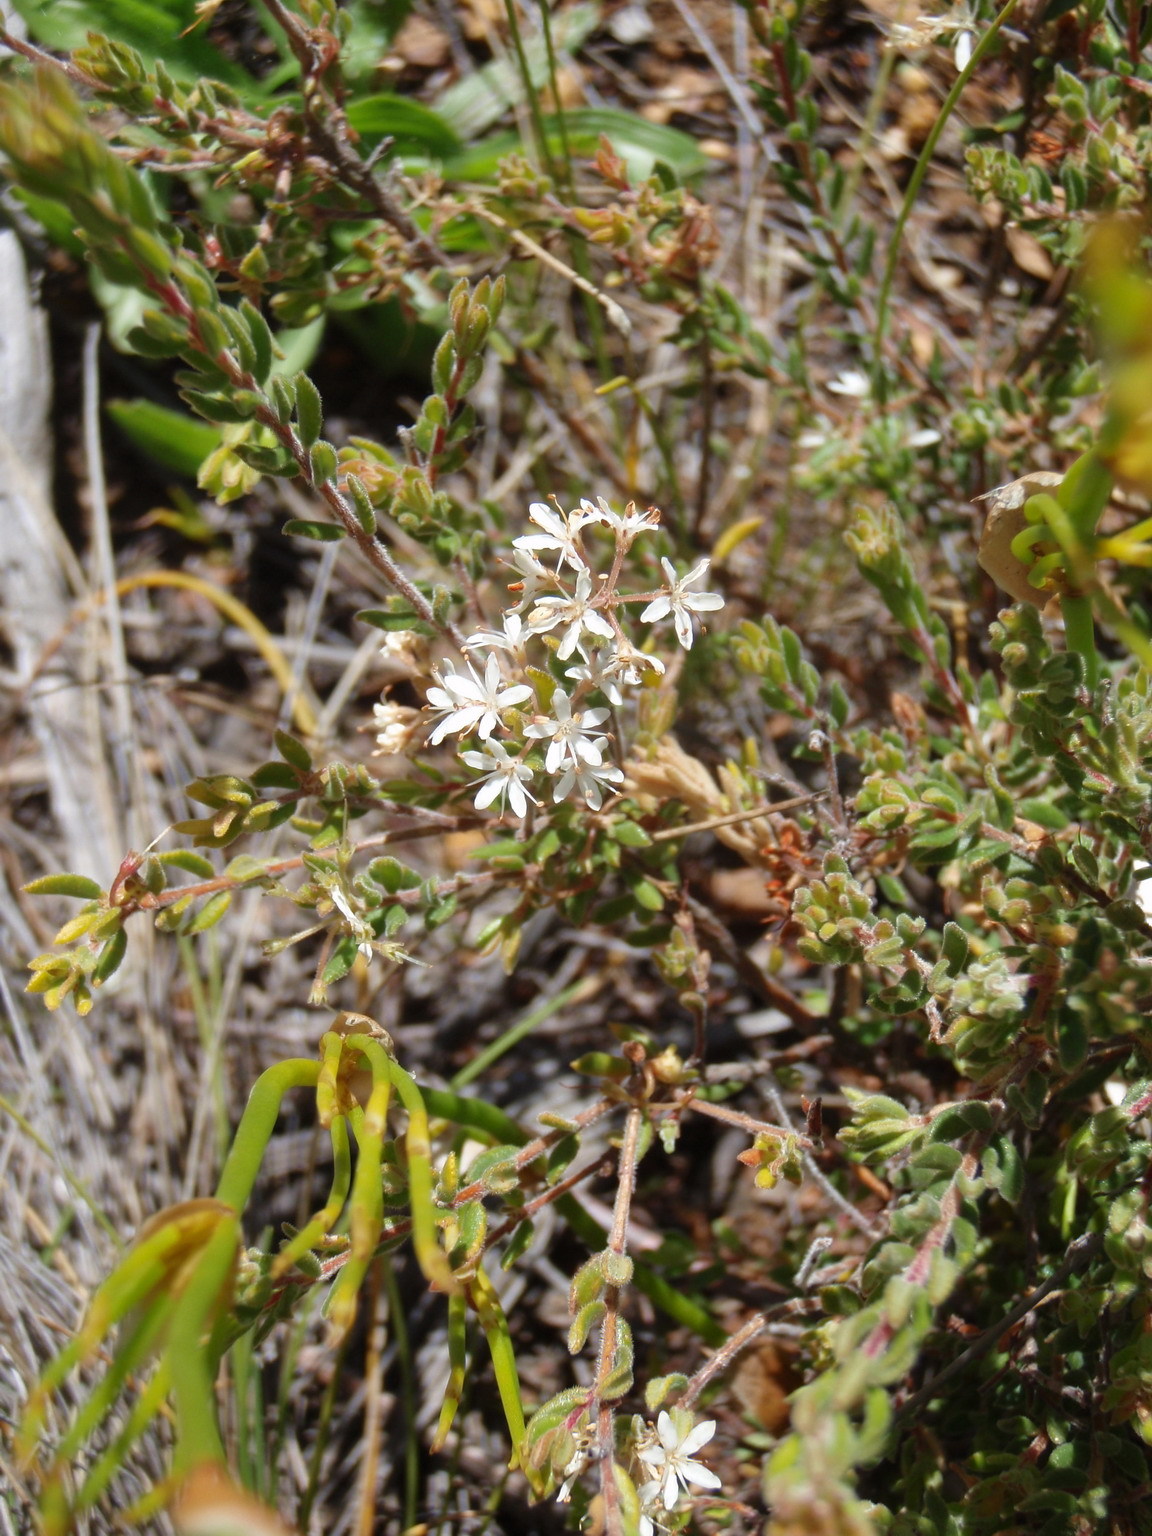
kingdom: Plantae
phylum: Tracheophyta
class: Magnoliopsida
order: Sapindales
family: Rutaceae
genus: Agathosma
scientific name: Agathosma mundtii
